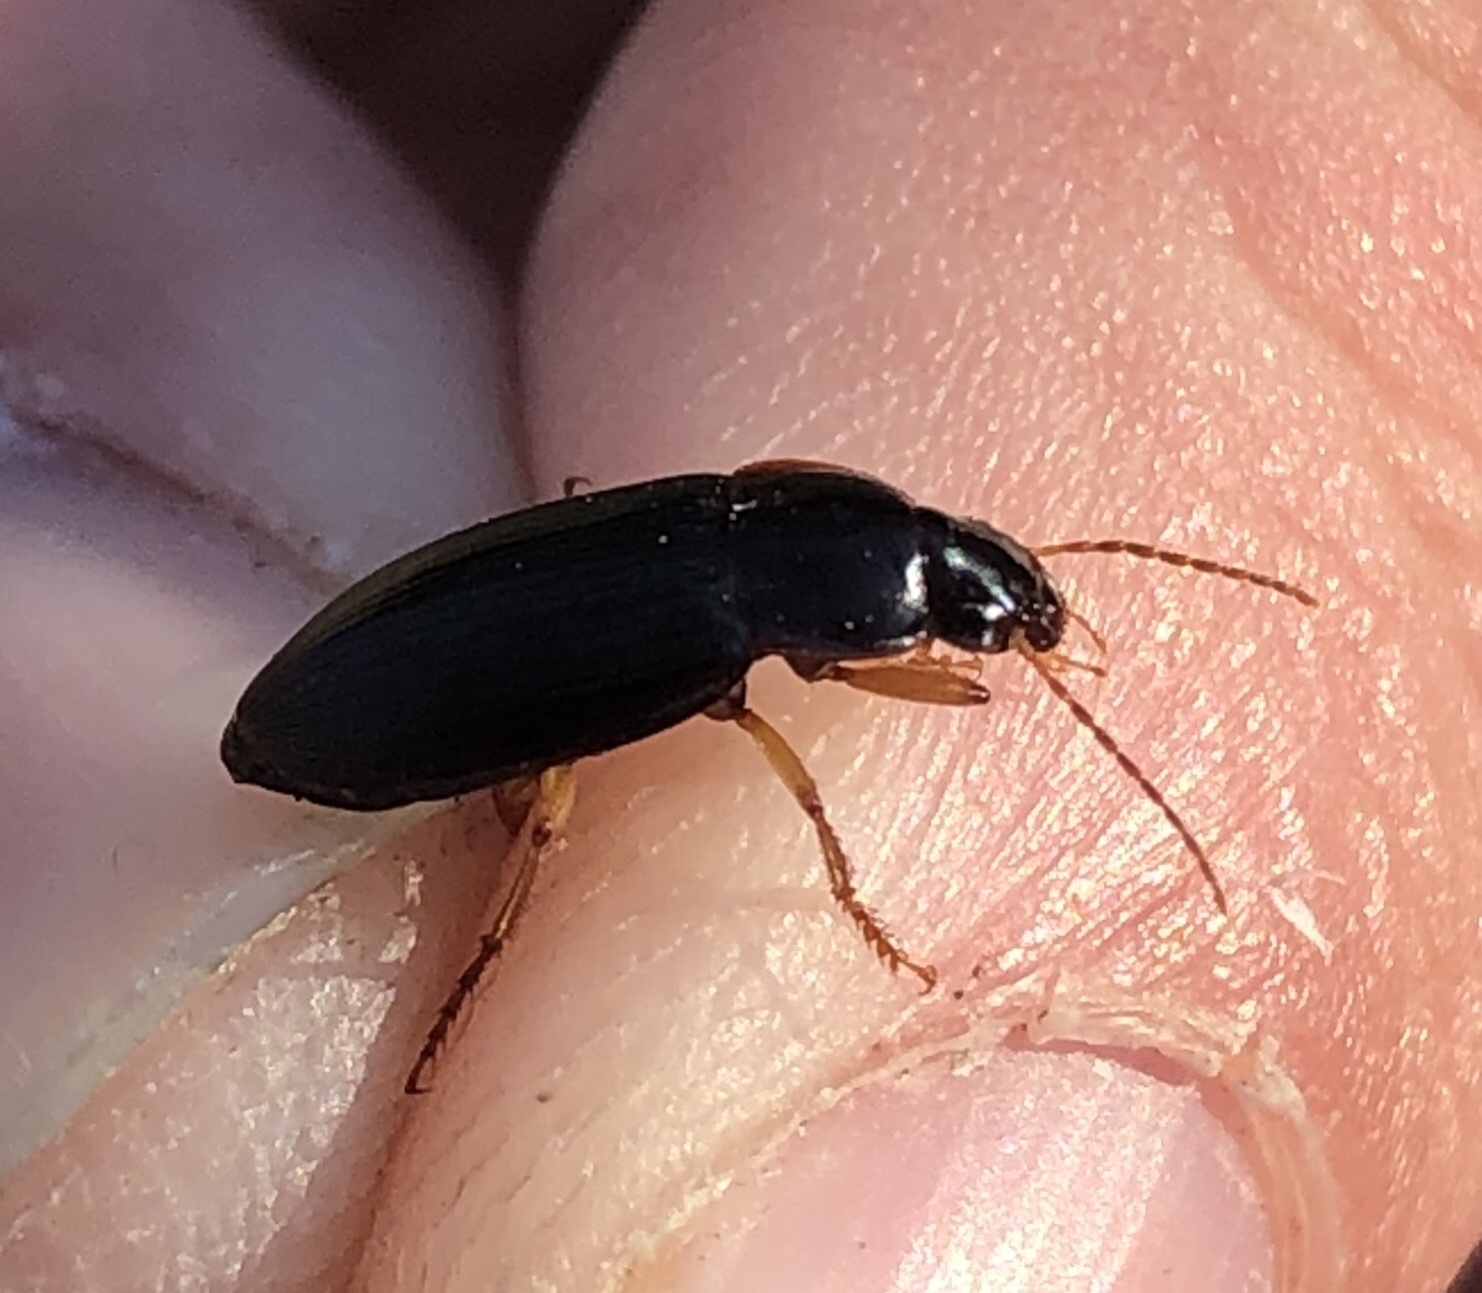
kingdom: Animalia
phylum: Arthropoda
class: Insecta
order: Coleoptera
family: Carabidae
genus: Notiobia
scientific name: Notiobia terminata
